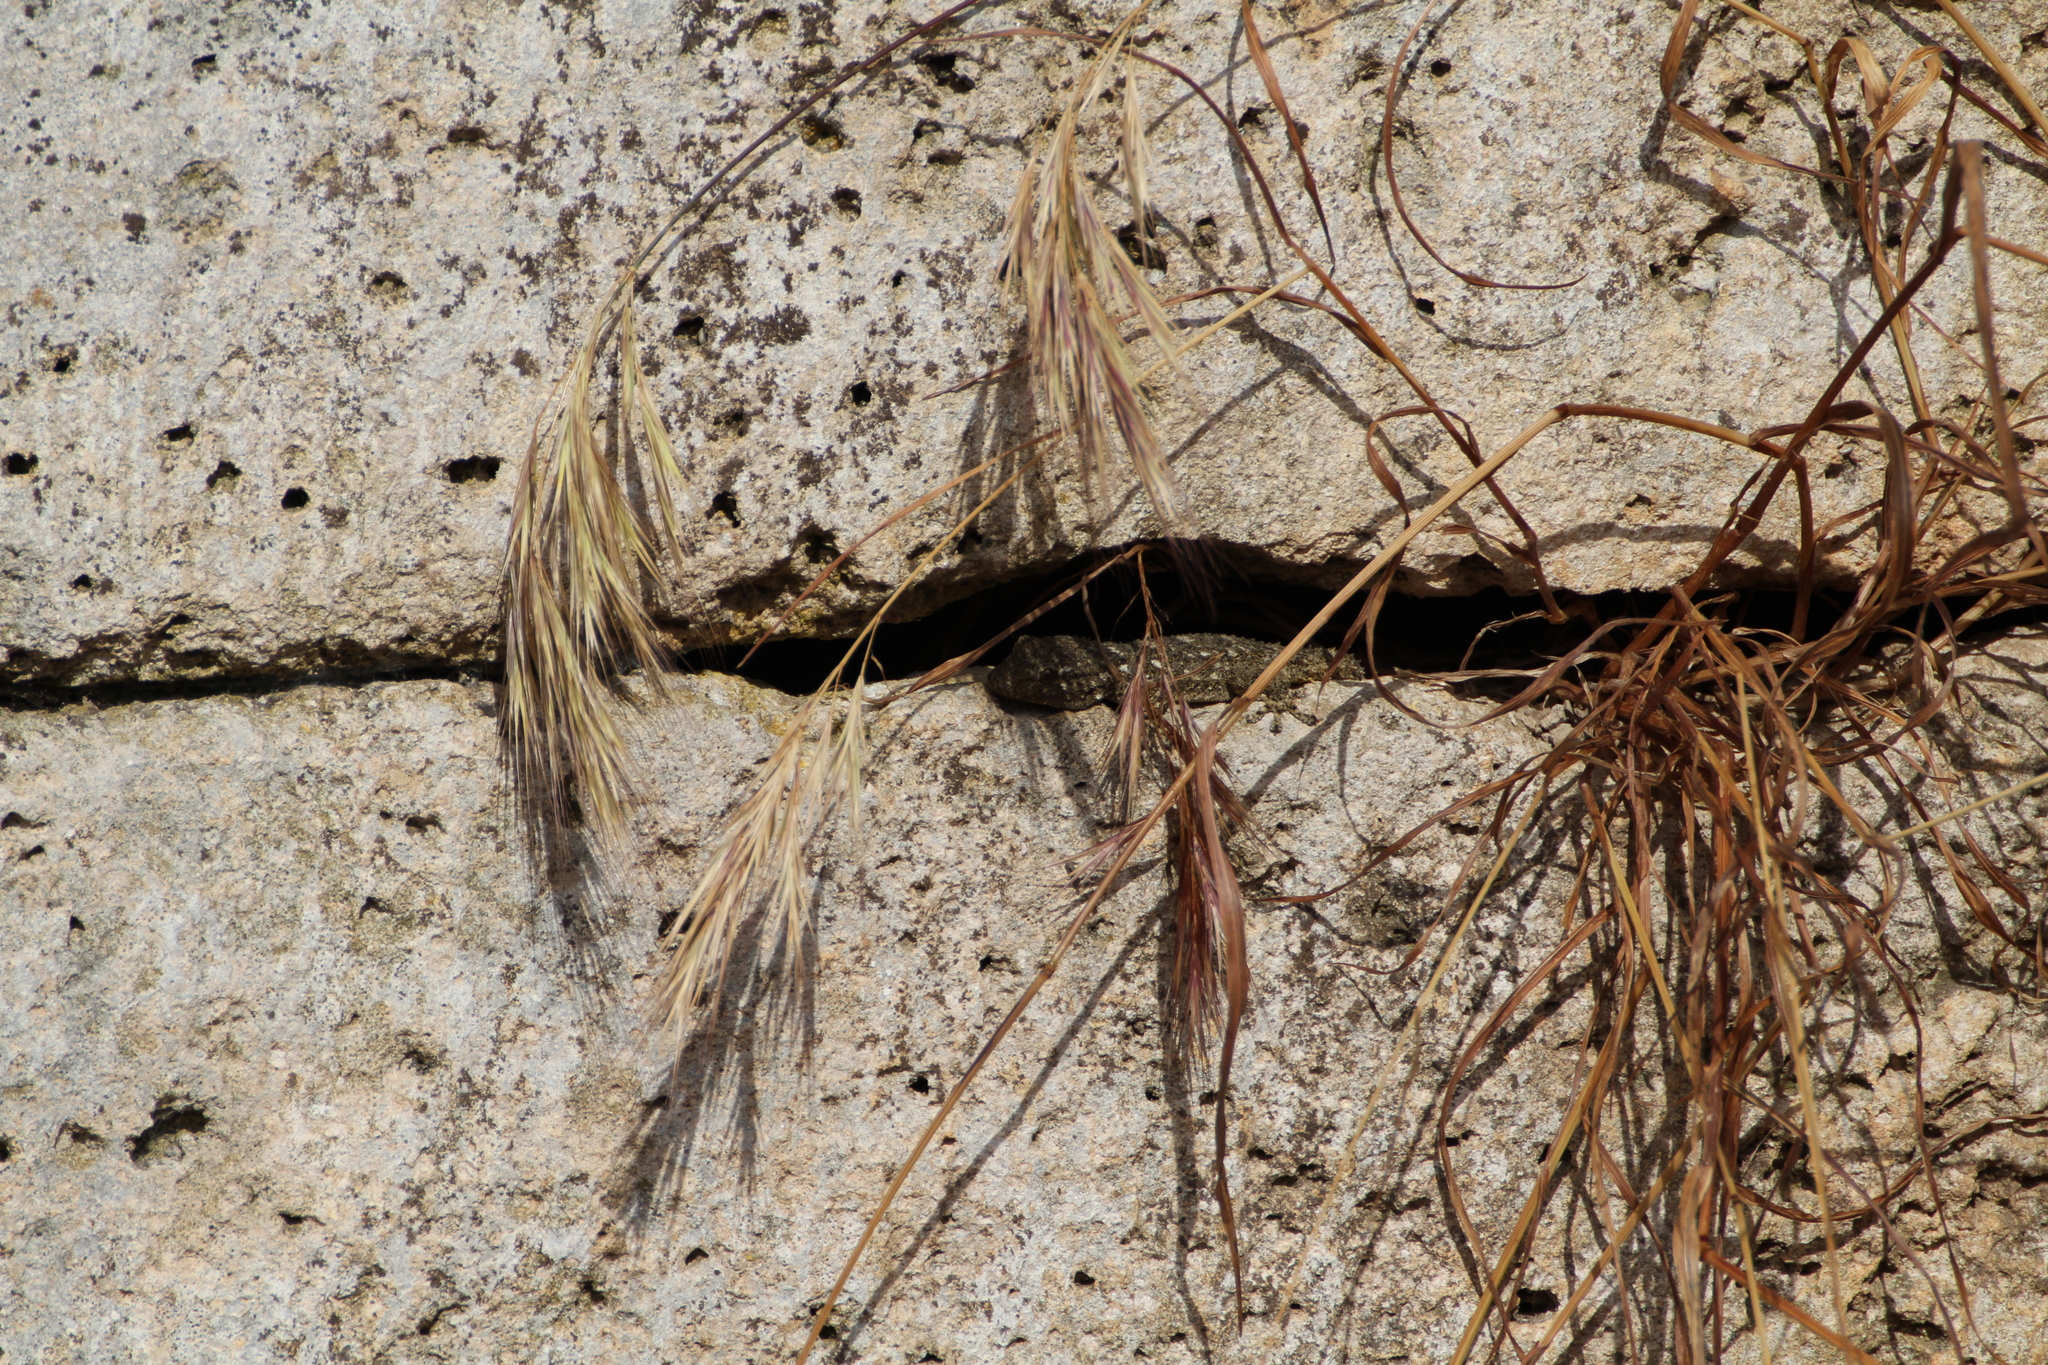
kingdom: Animalia
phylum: Chordata
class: Squamata
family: Phyllodactylidae
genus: Tarentola
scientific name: Tarentola mauritanica
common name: Moorish gecko
